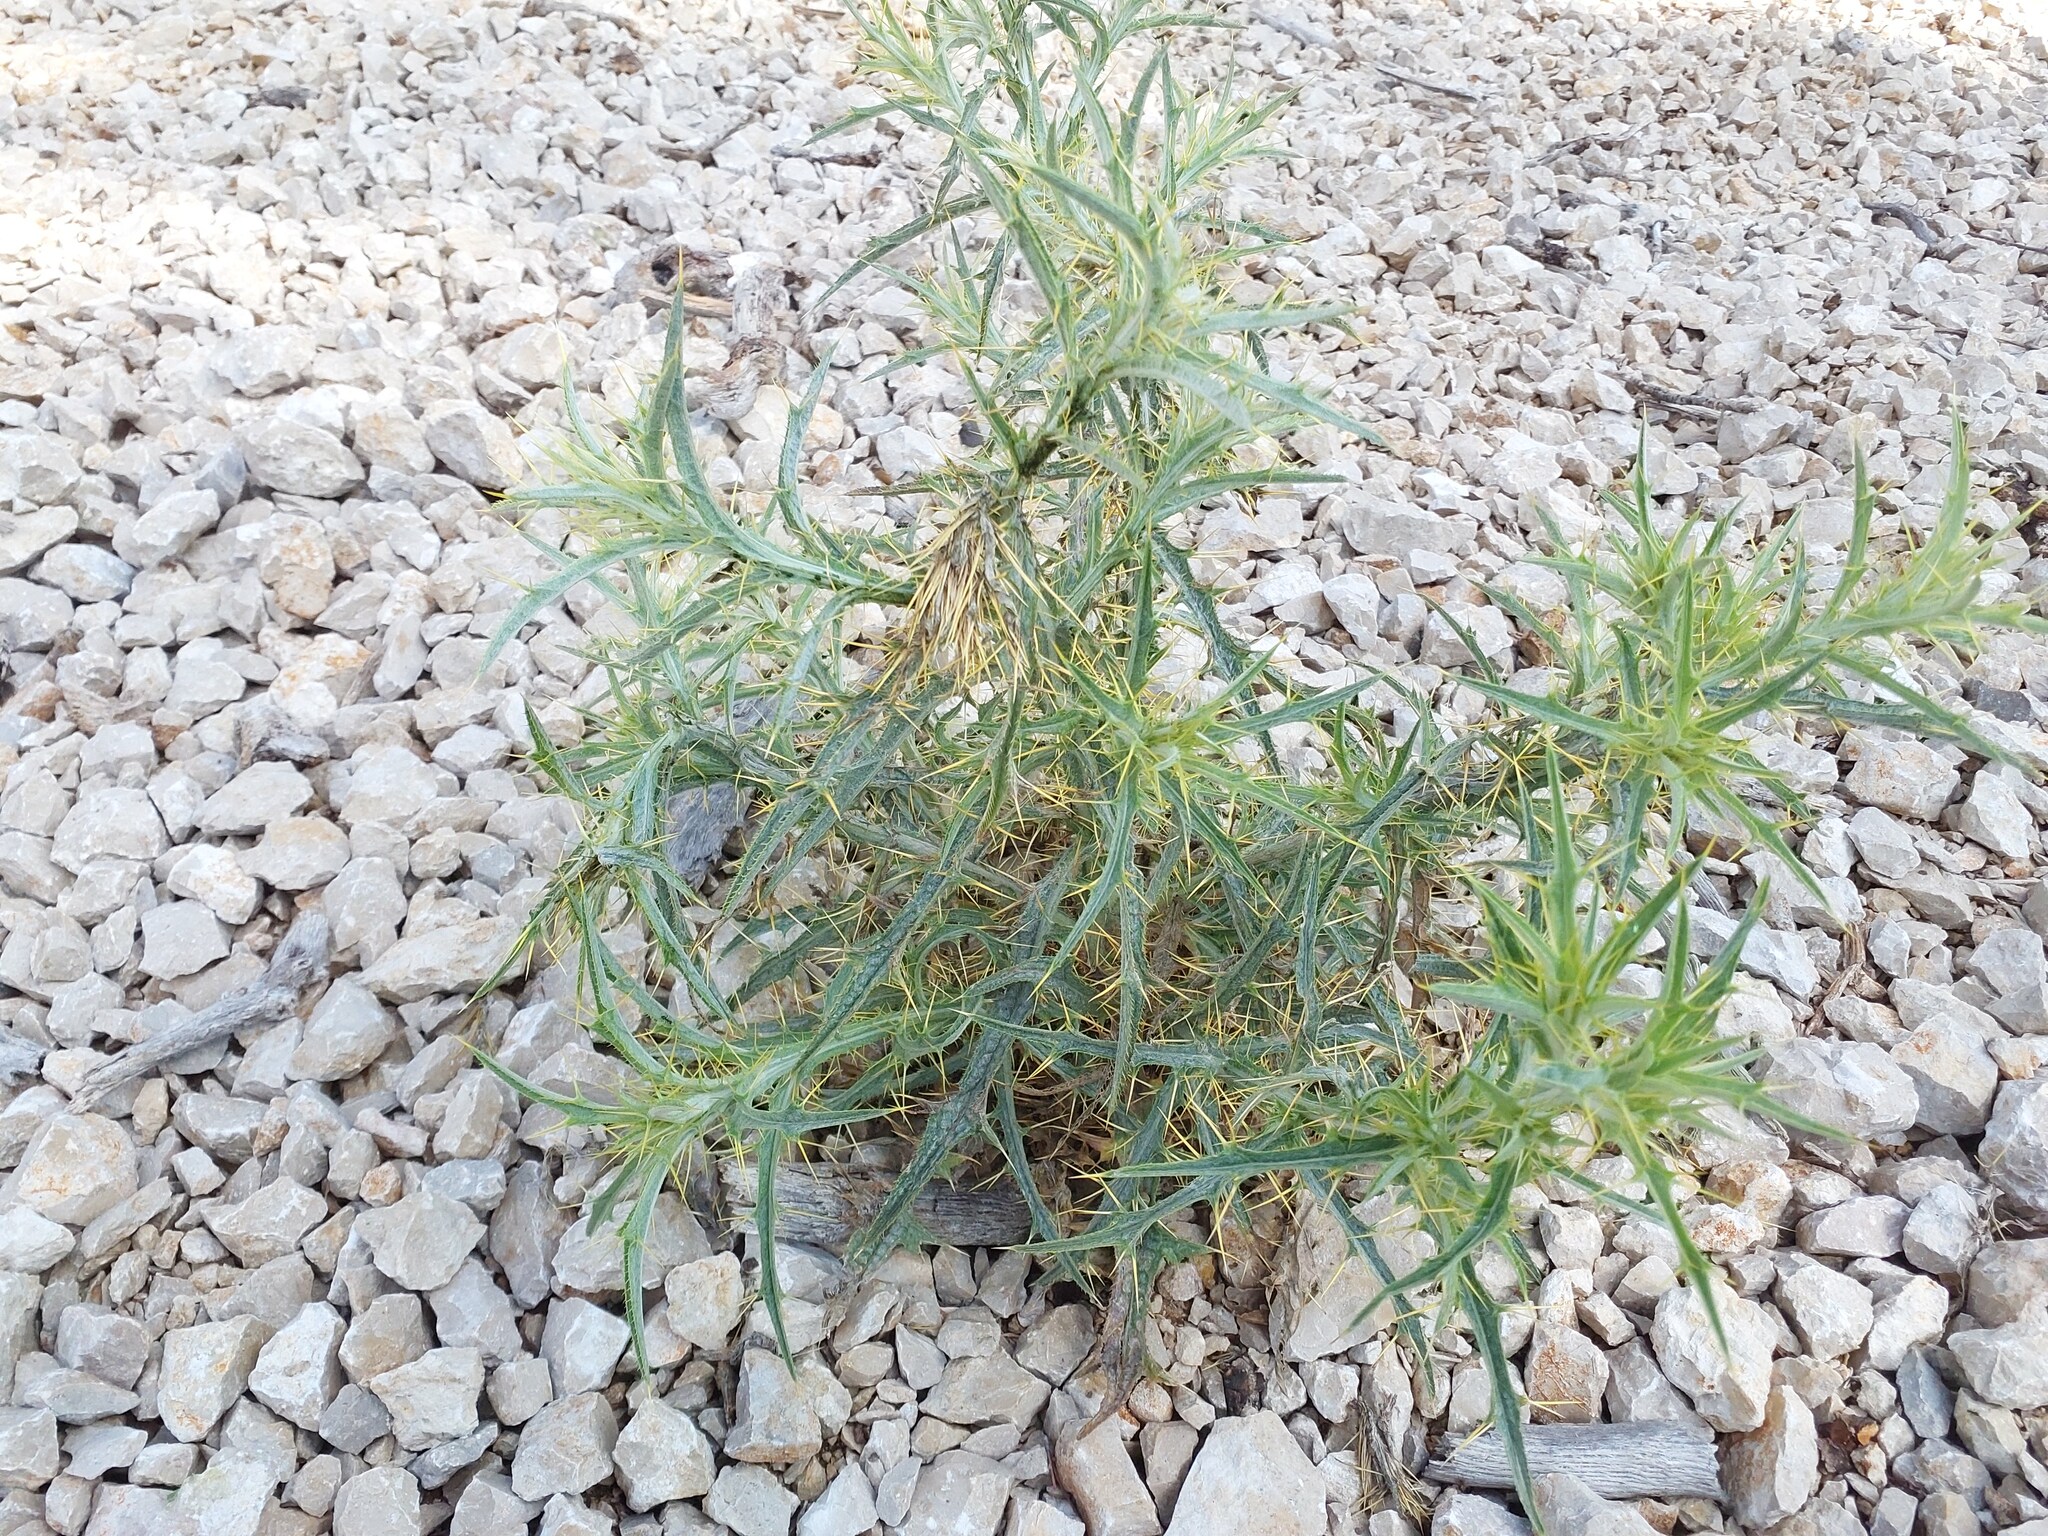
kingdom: Plantae
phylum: Tracheophyta
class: Magnoliopsida
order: Asterales
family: Asteraceae
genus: Picnomon
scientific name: Picnomon acarna
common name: Soldier thistle
